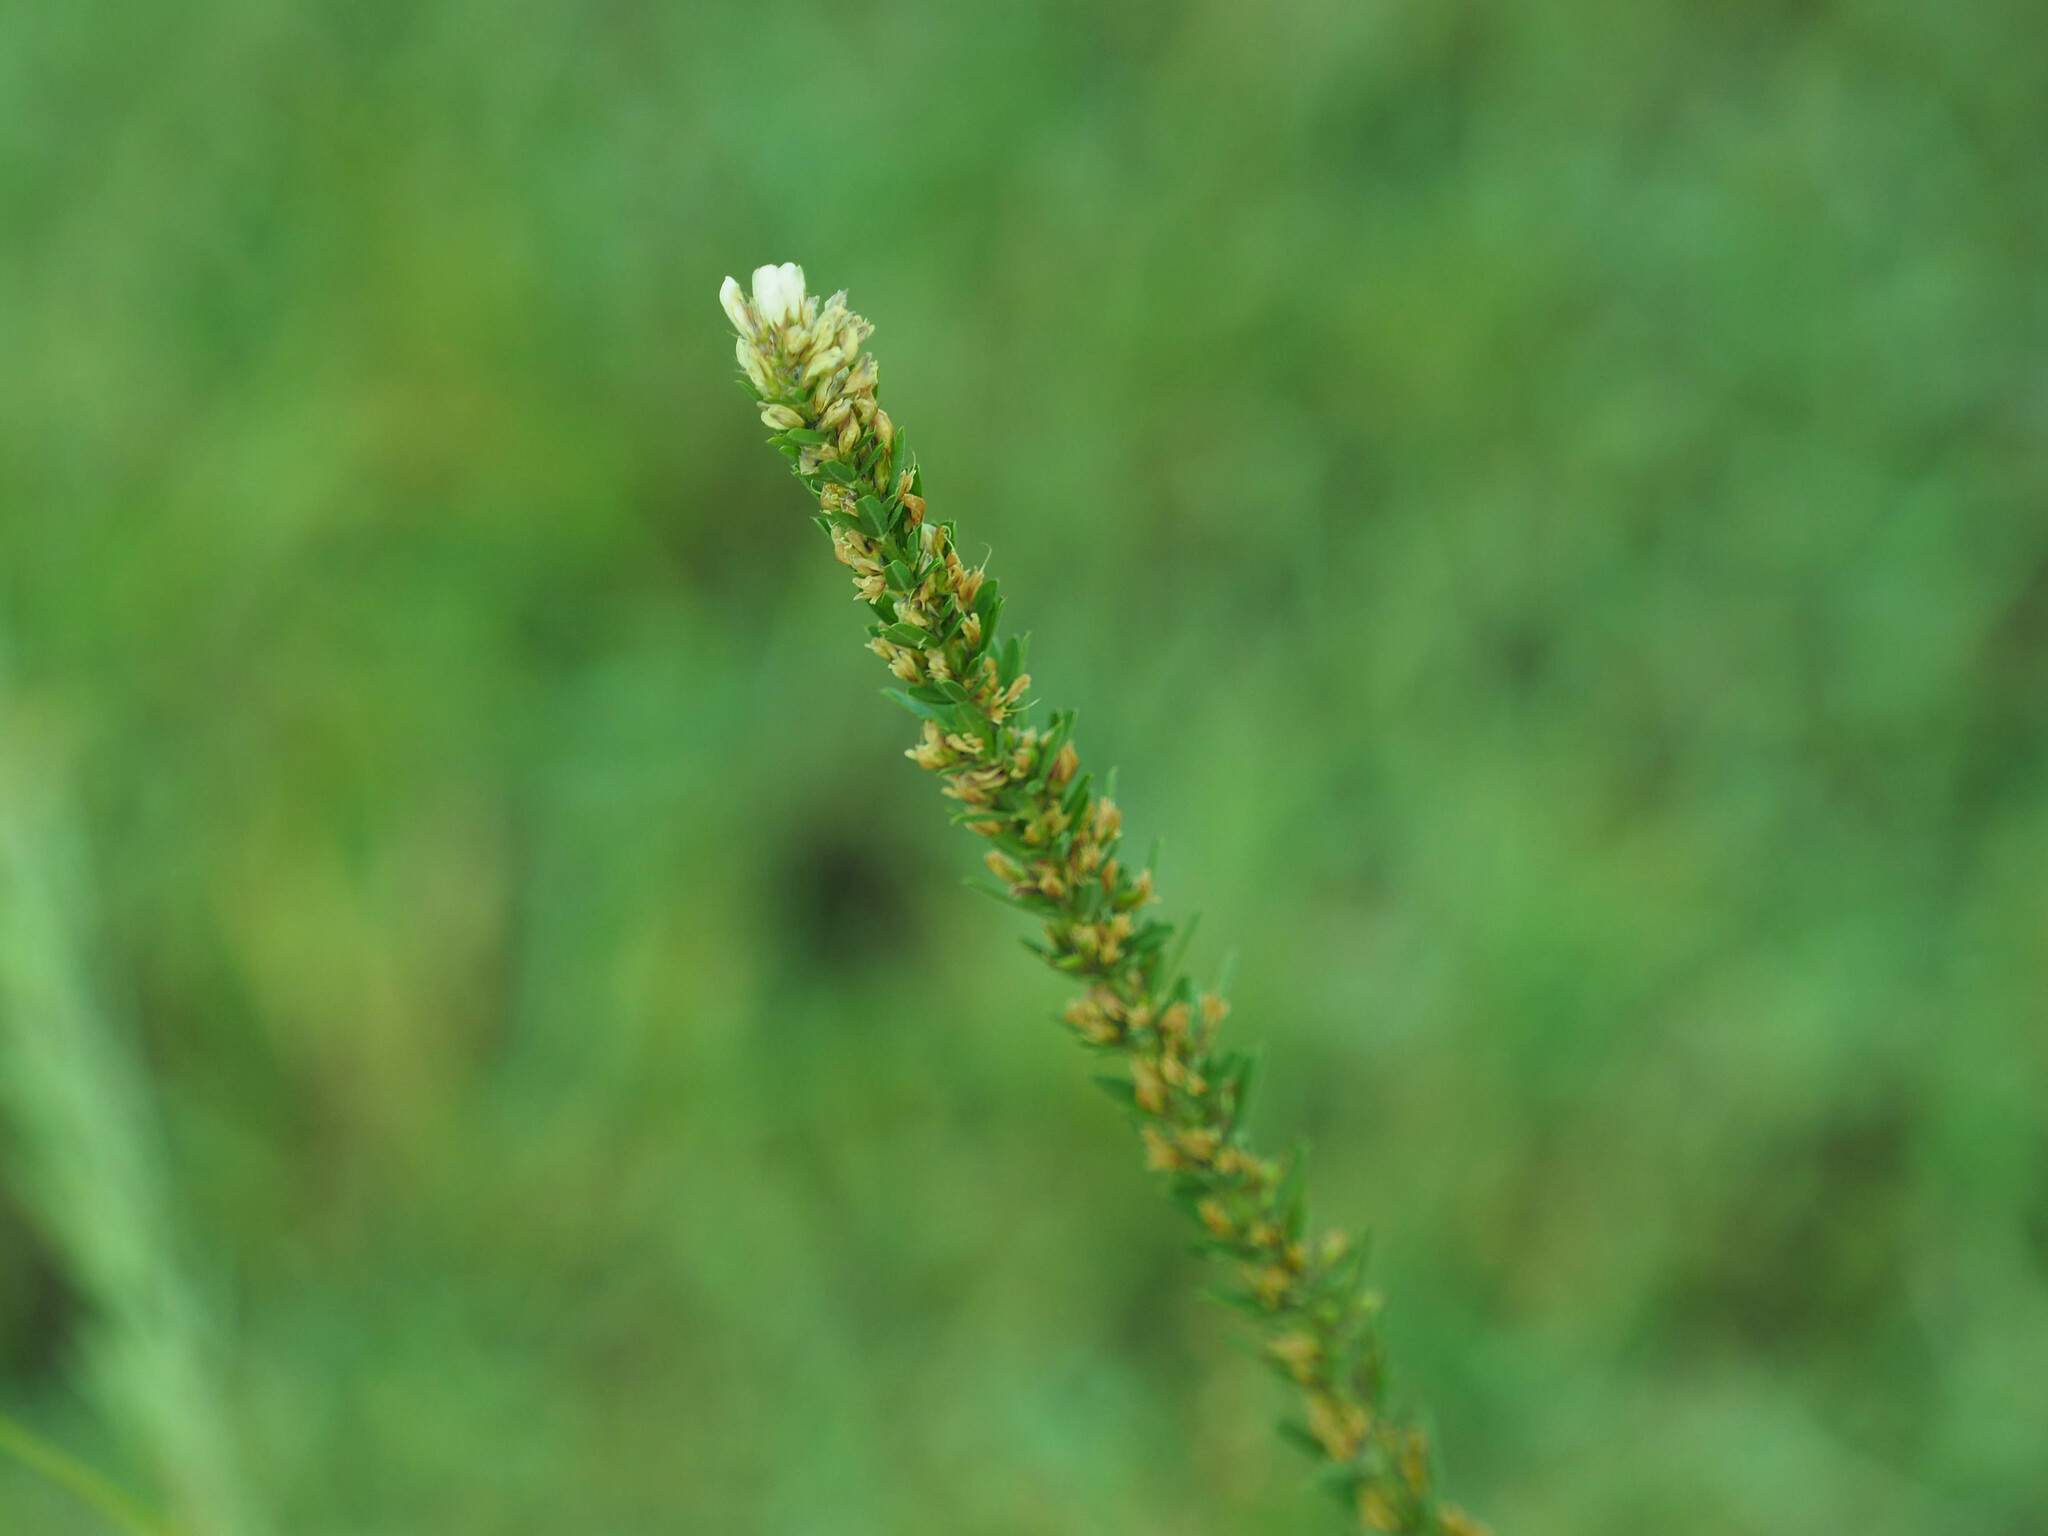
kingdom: Plantae
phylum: Tracheophyta
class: Magnoliopsida
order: Fabales
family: Fabaceae
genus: Lespedeza
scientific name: Lespedeza cuneata
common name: Chinese bush-clover
